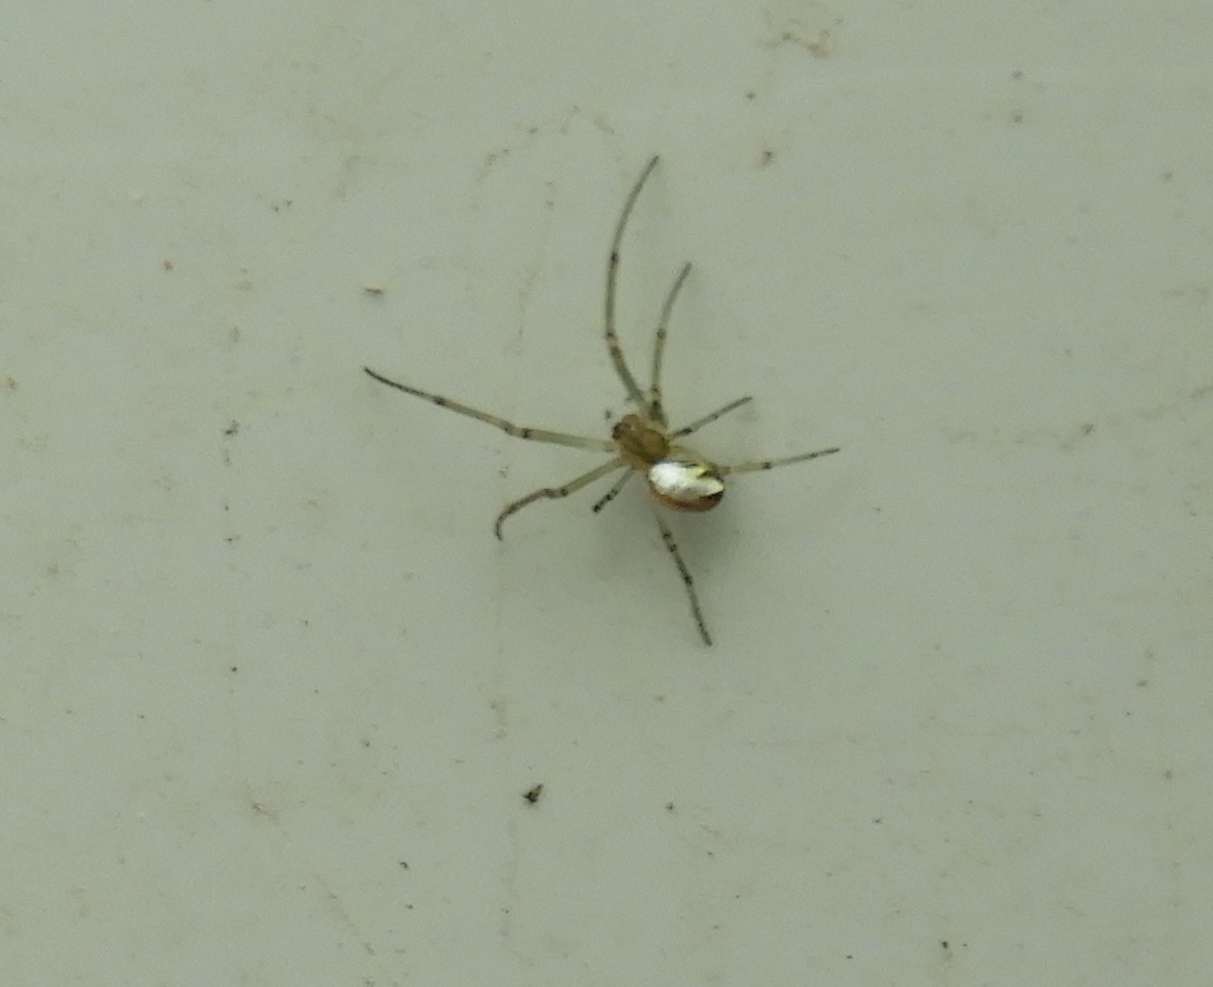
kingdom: Animalia
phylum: Arthropoda
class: Arachnida
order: Araneae
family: Tetragnathidae
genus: Leucauge
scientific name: Leucauge
